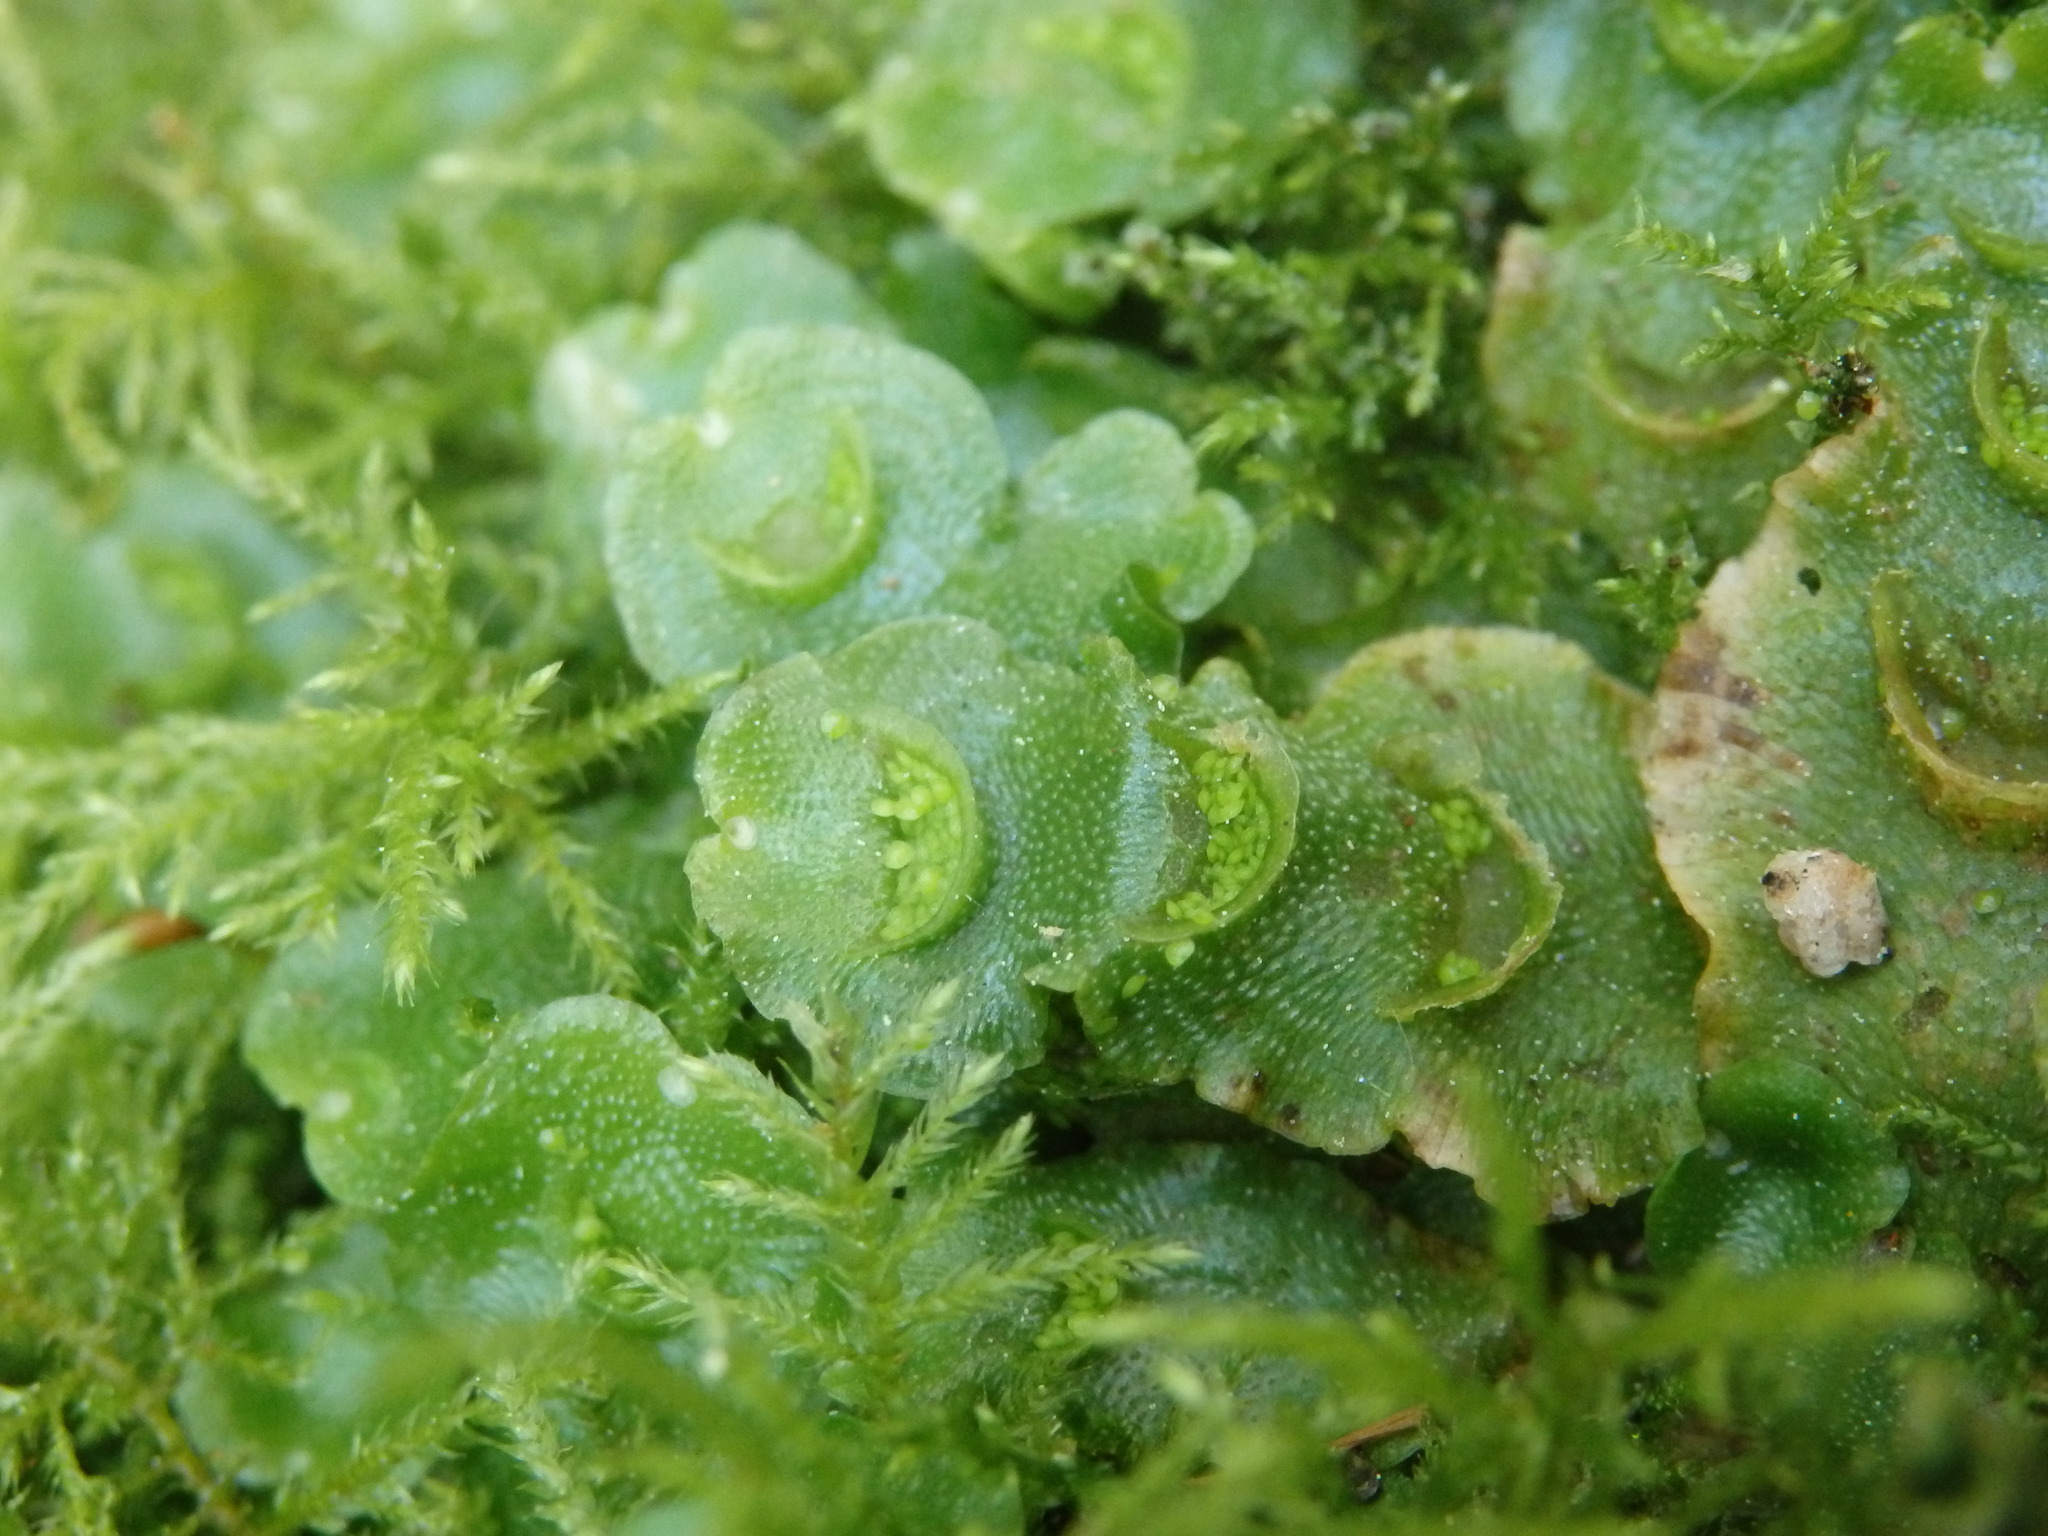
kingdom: Plantae
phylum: Marchantiophyta
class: Marchantiopsida
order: Lunulariales
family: Lunulariaceae
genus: Lunularia
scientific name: Lunularia cruciata
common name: Crescent-cup liverwort
